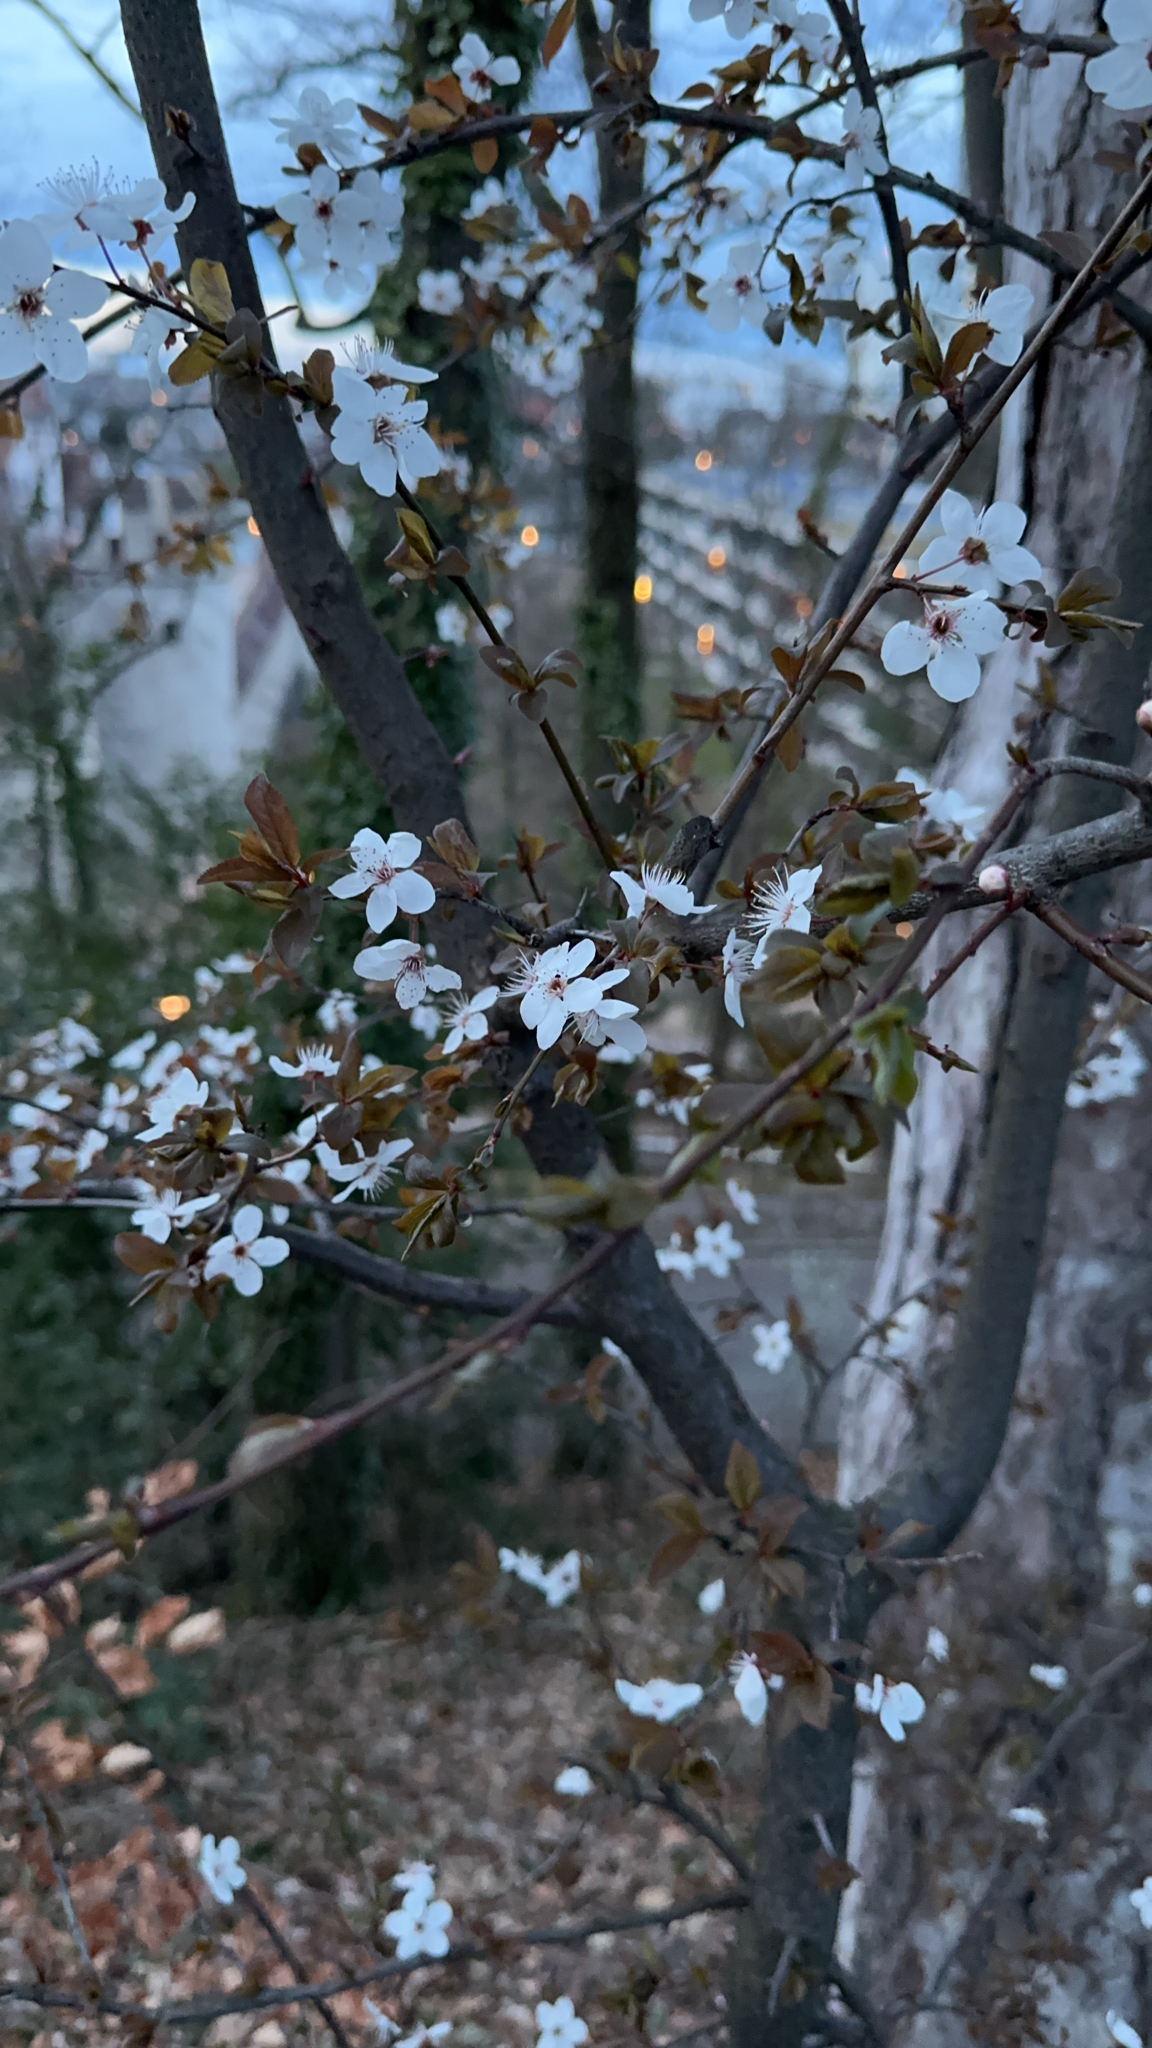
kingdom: Plantae
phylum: Tracheophyta
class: Magnoliopsida
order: Rosales
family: Rosaceae
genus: Prunus
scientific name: Prunus cerasifera
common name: Cherry plum
